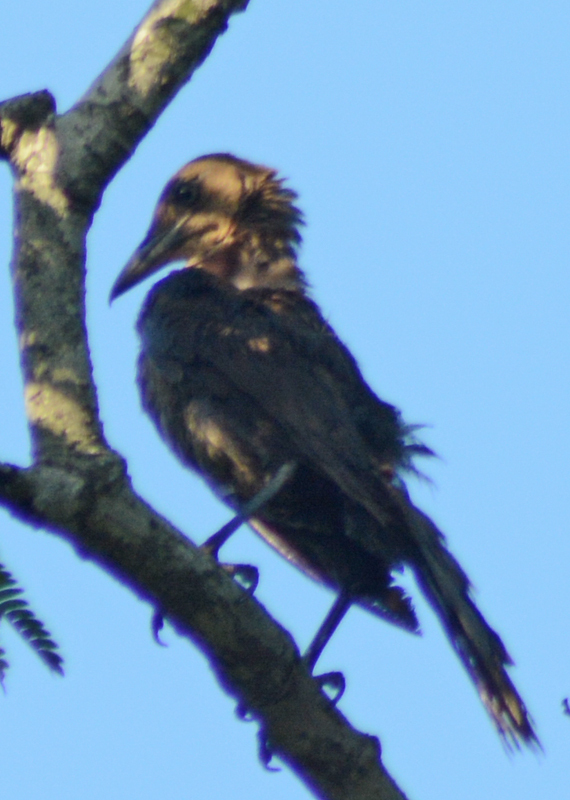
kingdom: Animalia
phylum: Chordata
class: Aves
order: Passeriformes
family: Icteridae
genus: Quiscalus
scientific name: Quiscalus mexicanus
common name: Great-tailed grackle
